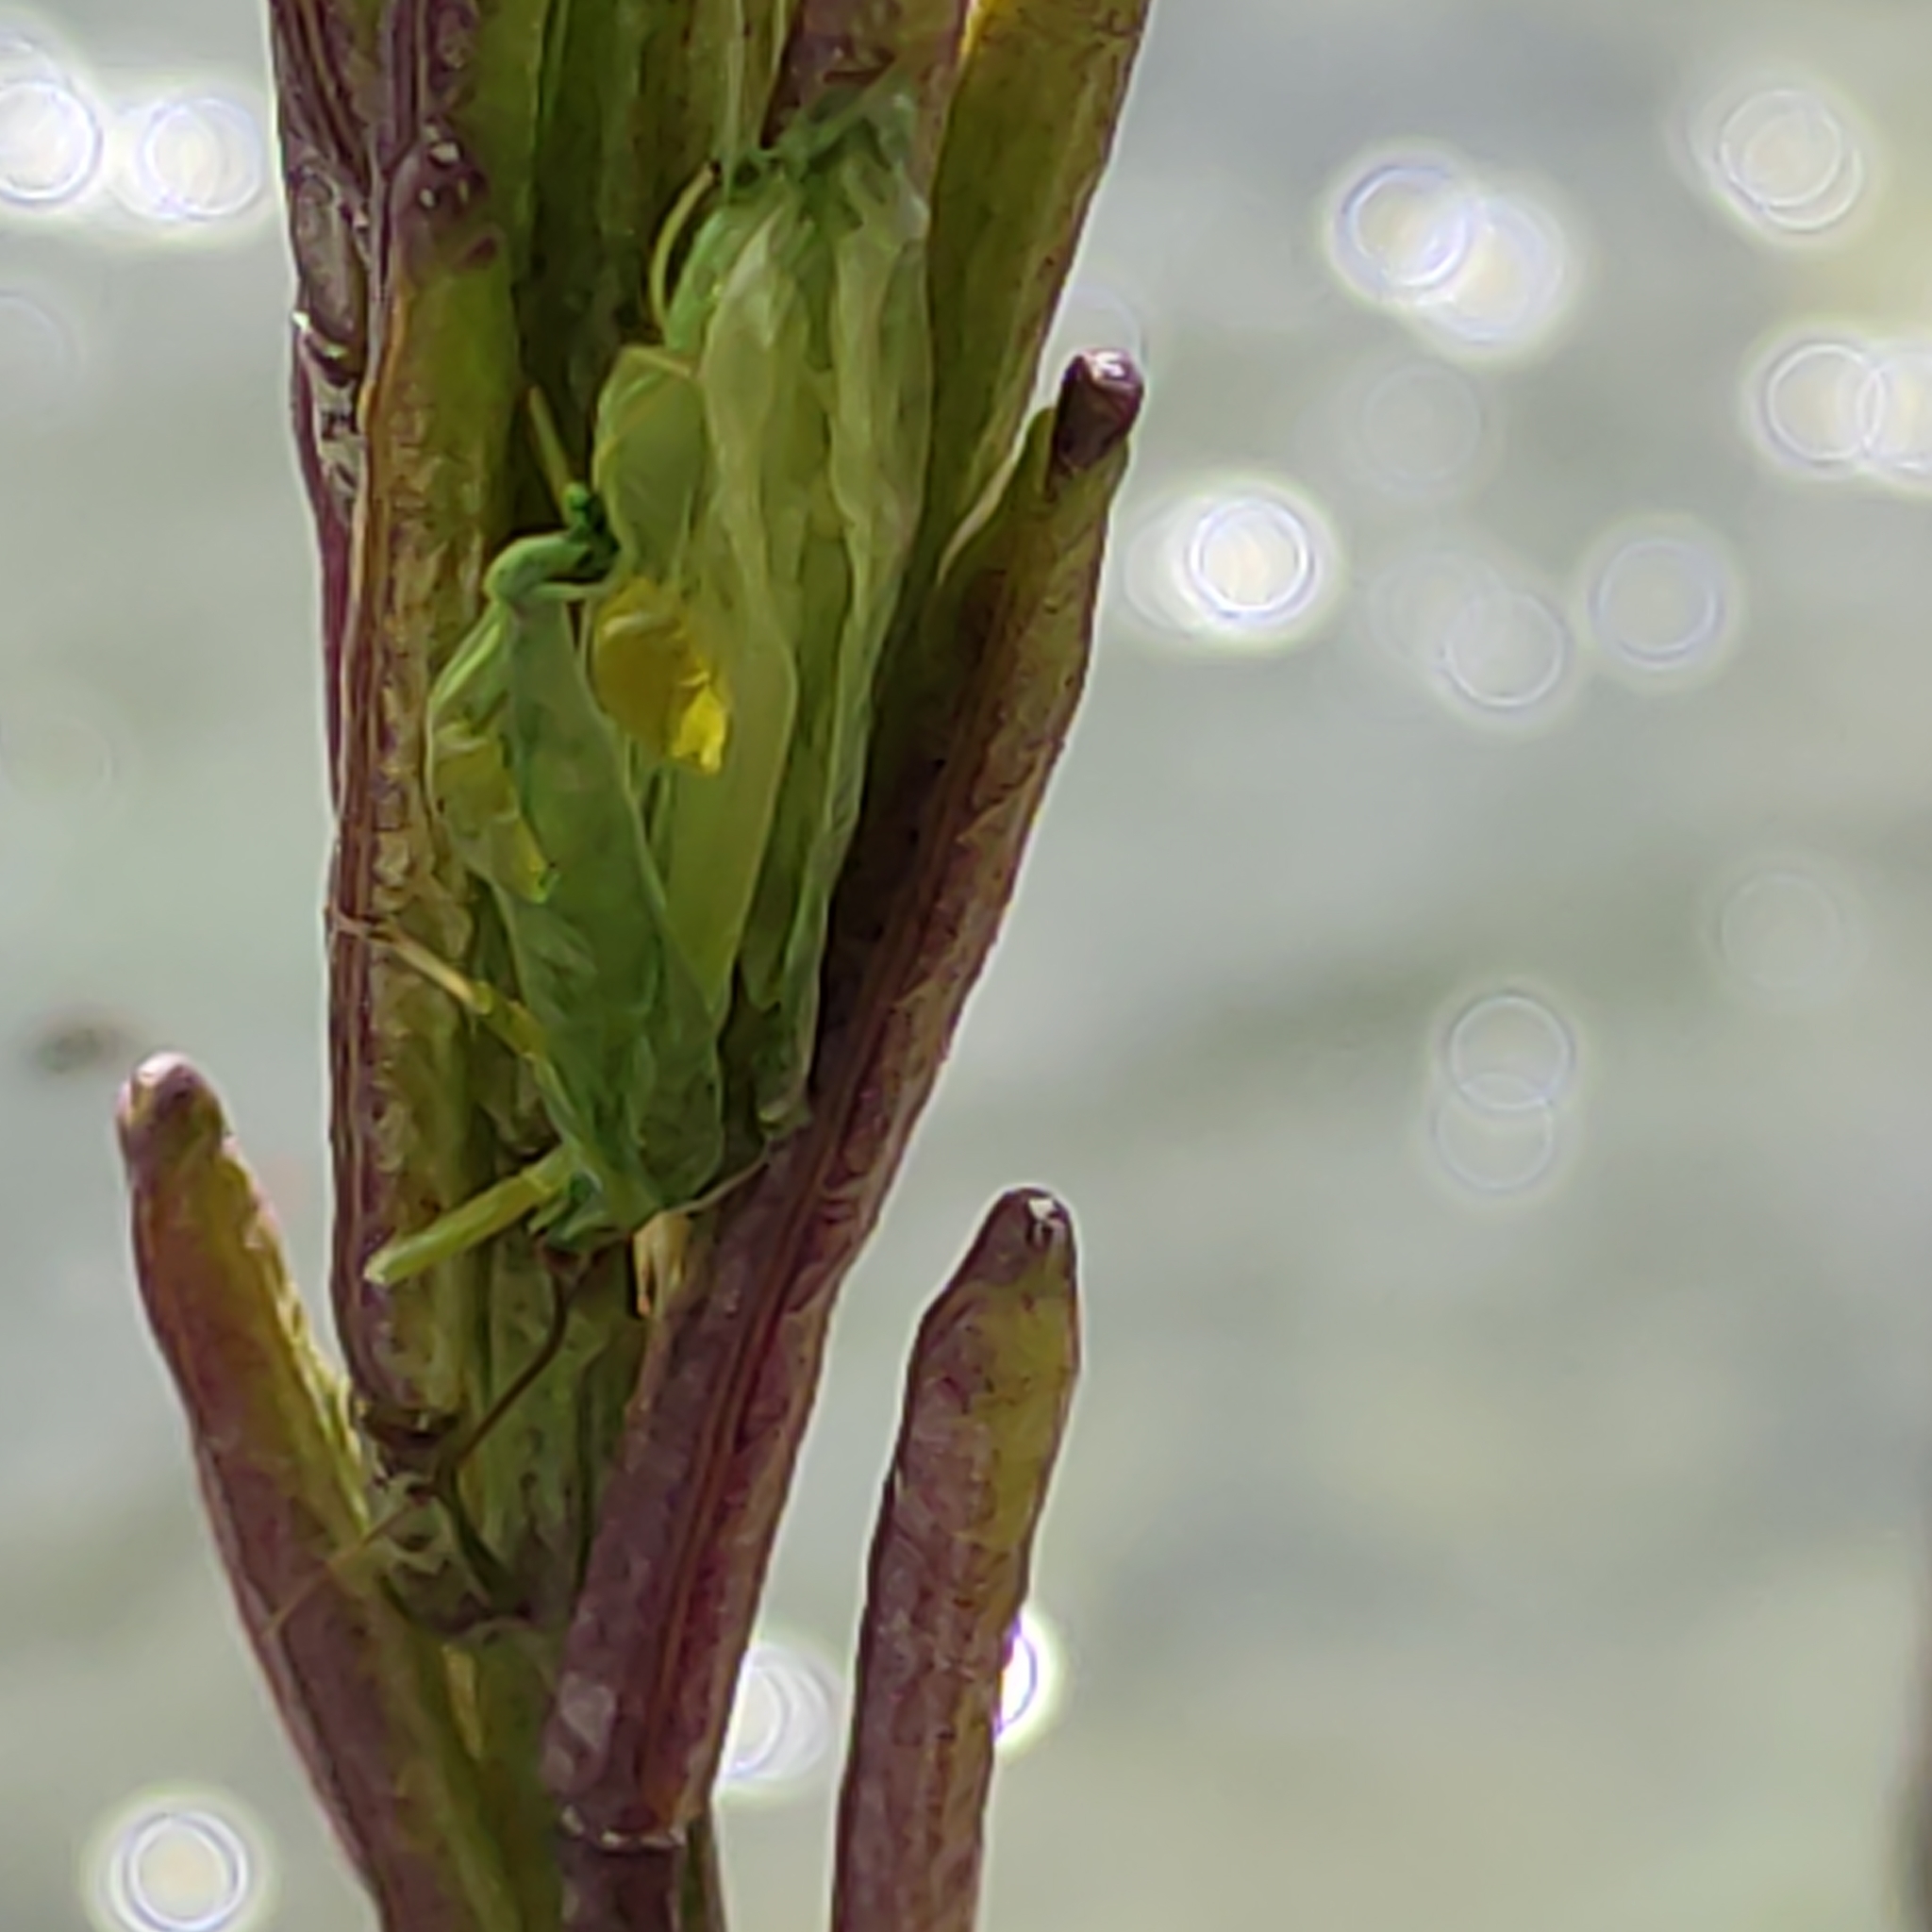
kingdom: Animalia
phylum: Arthropoda
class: Insecta
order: Orthoptera
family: Tettigoniidae
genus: Caedicia
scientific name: Caedicia simplex
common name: Common garden katydid
